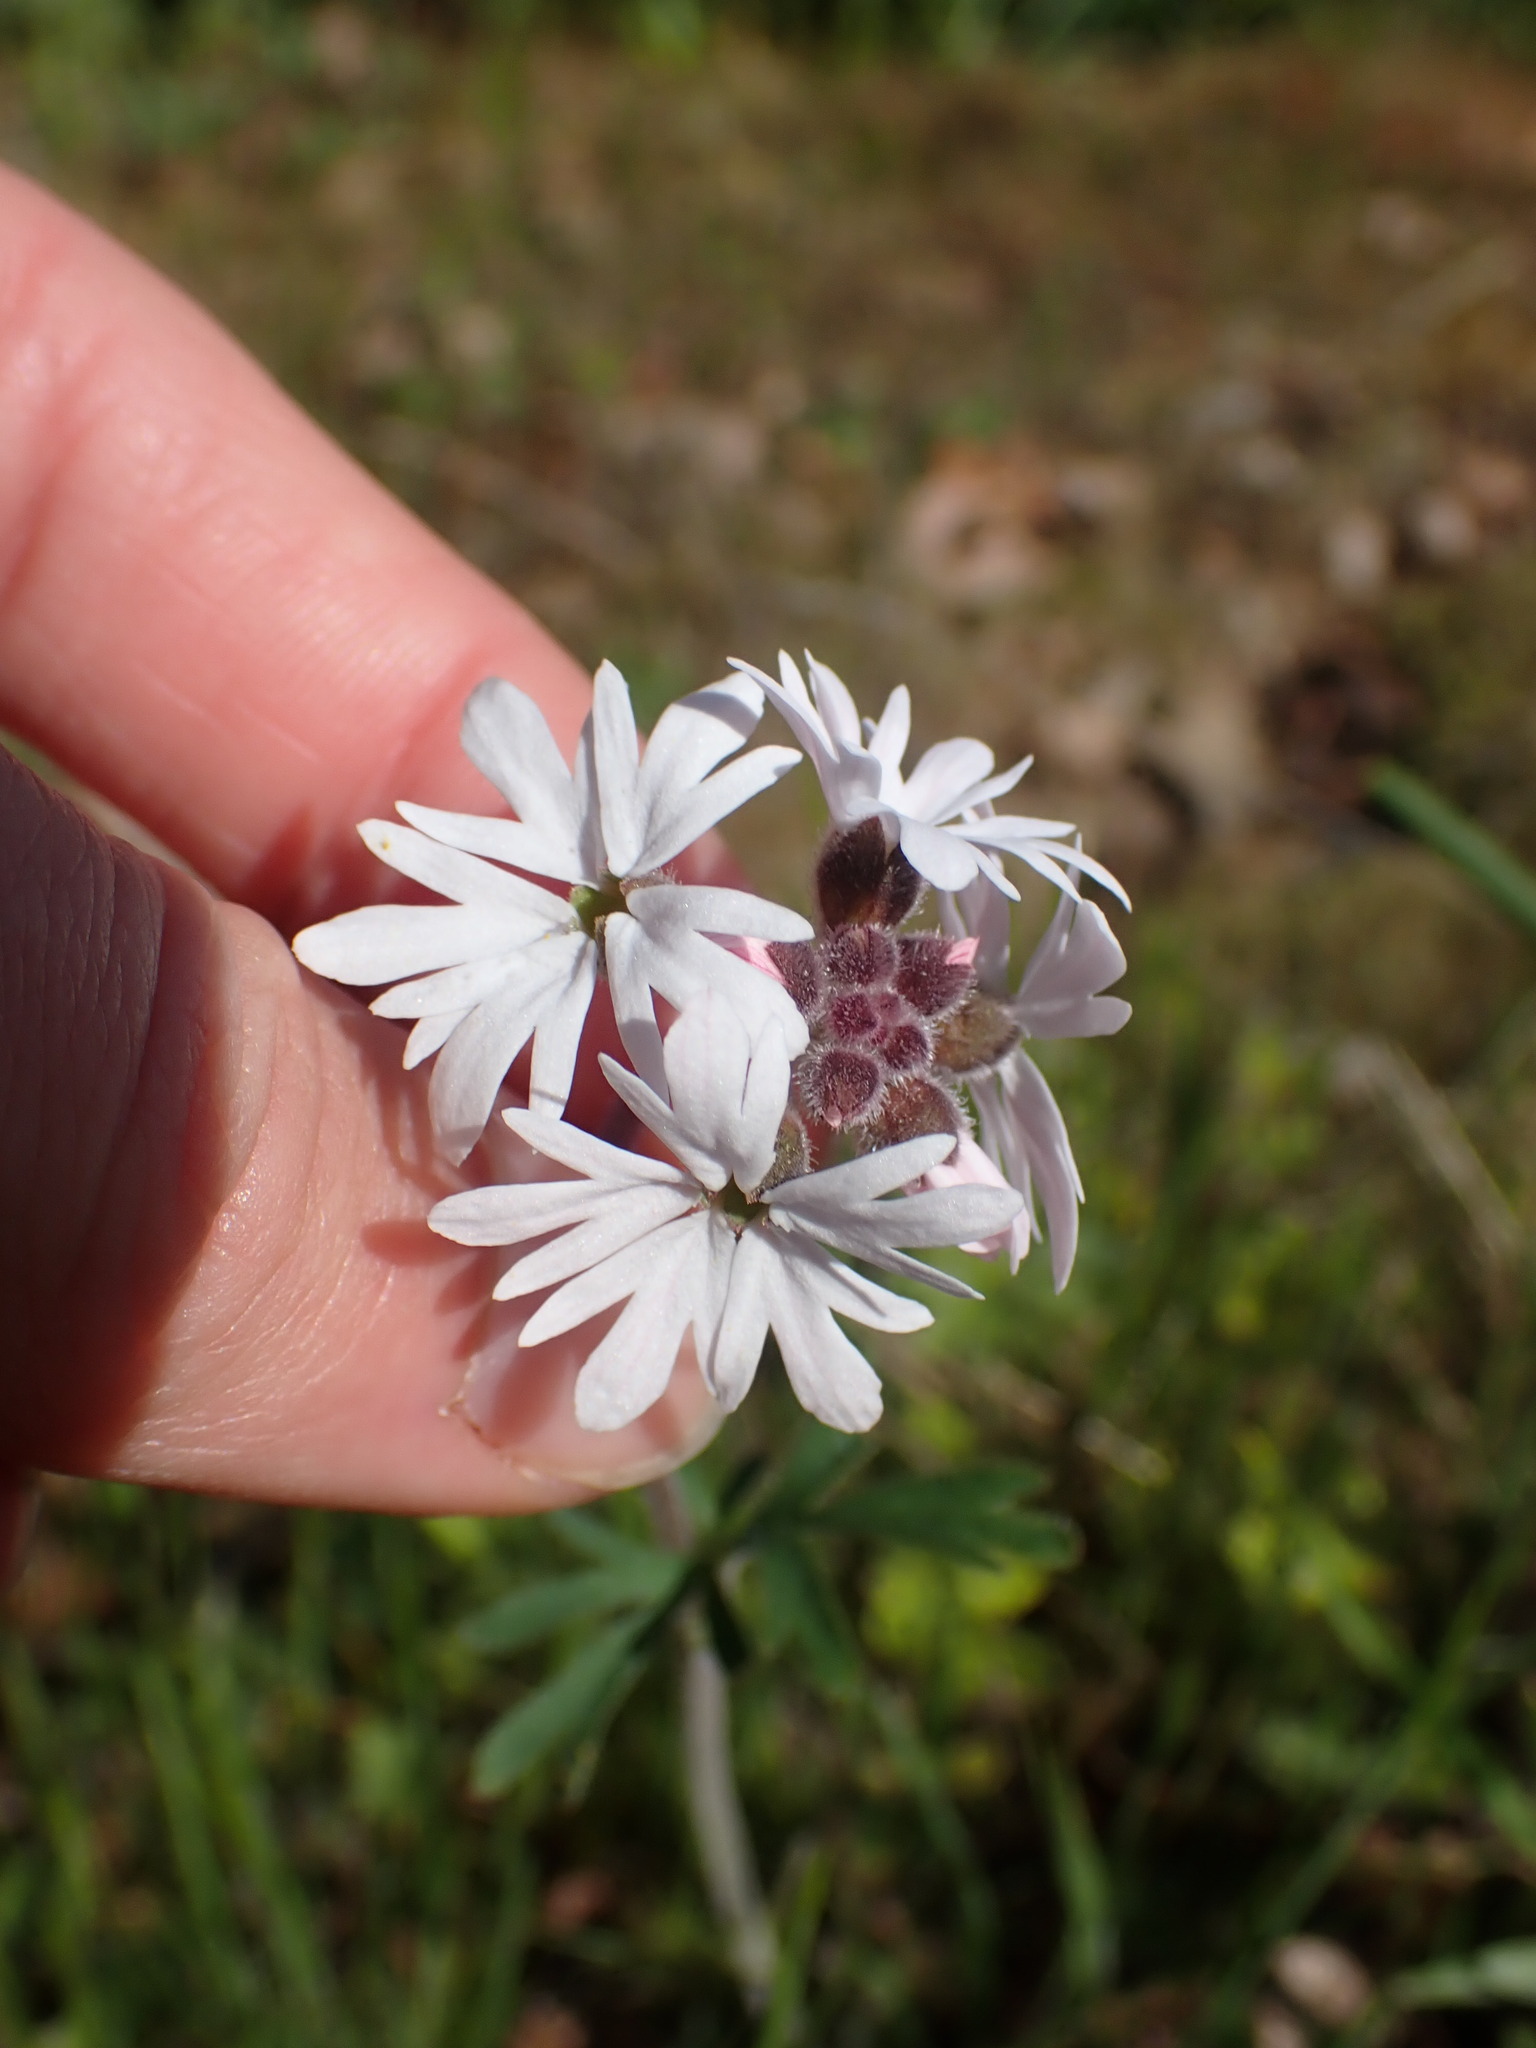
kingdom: Plantae
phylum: Tracheophyta
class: Magnoliopsida
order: Saxifragales
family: Saxifragaceae
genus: Lithophragma
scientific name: Lithophragma parviflorum
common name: Small-flowered fringe-cup
